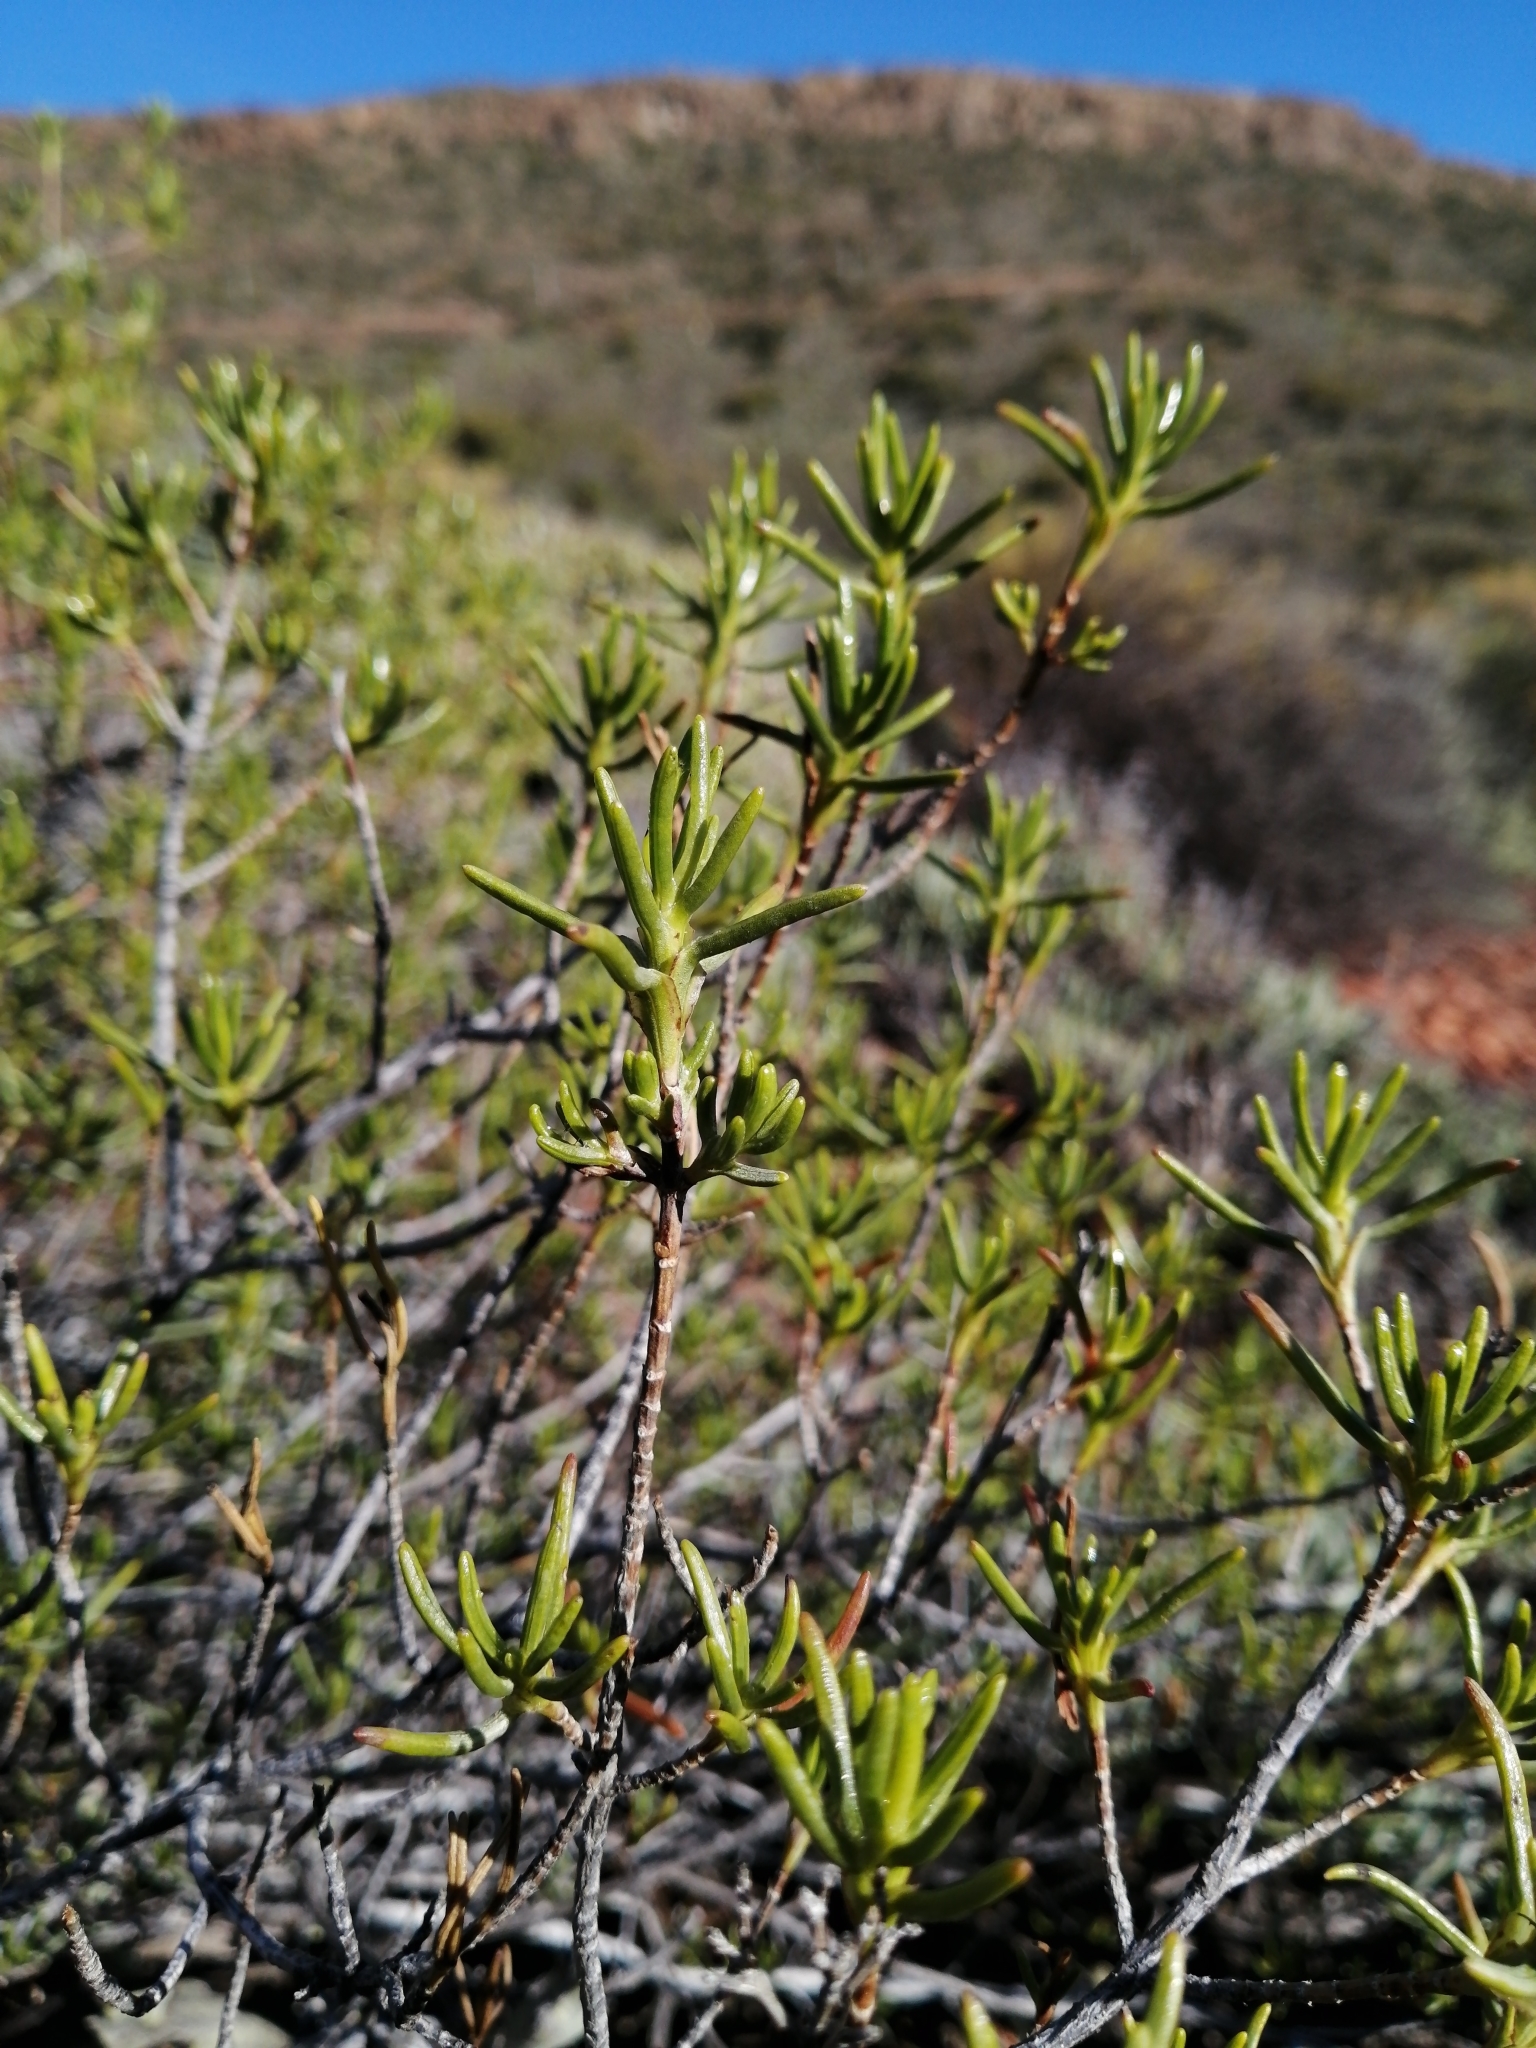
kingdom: Plantae
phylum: Tracheophyta
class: Magnoliopsida
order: Asterales
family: Asteraceae
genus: Pteronia
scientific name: Pteronia paniculata
